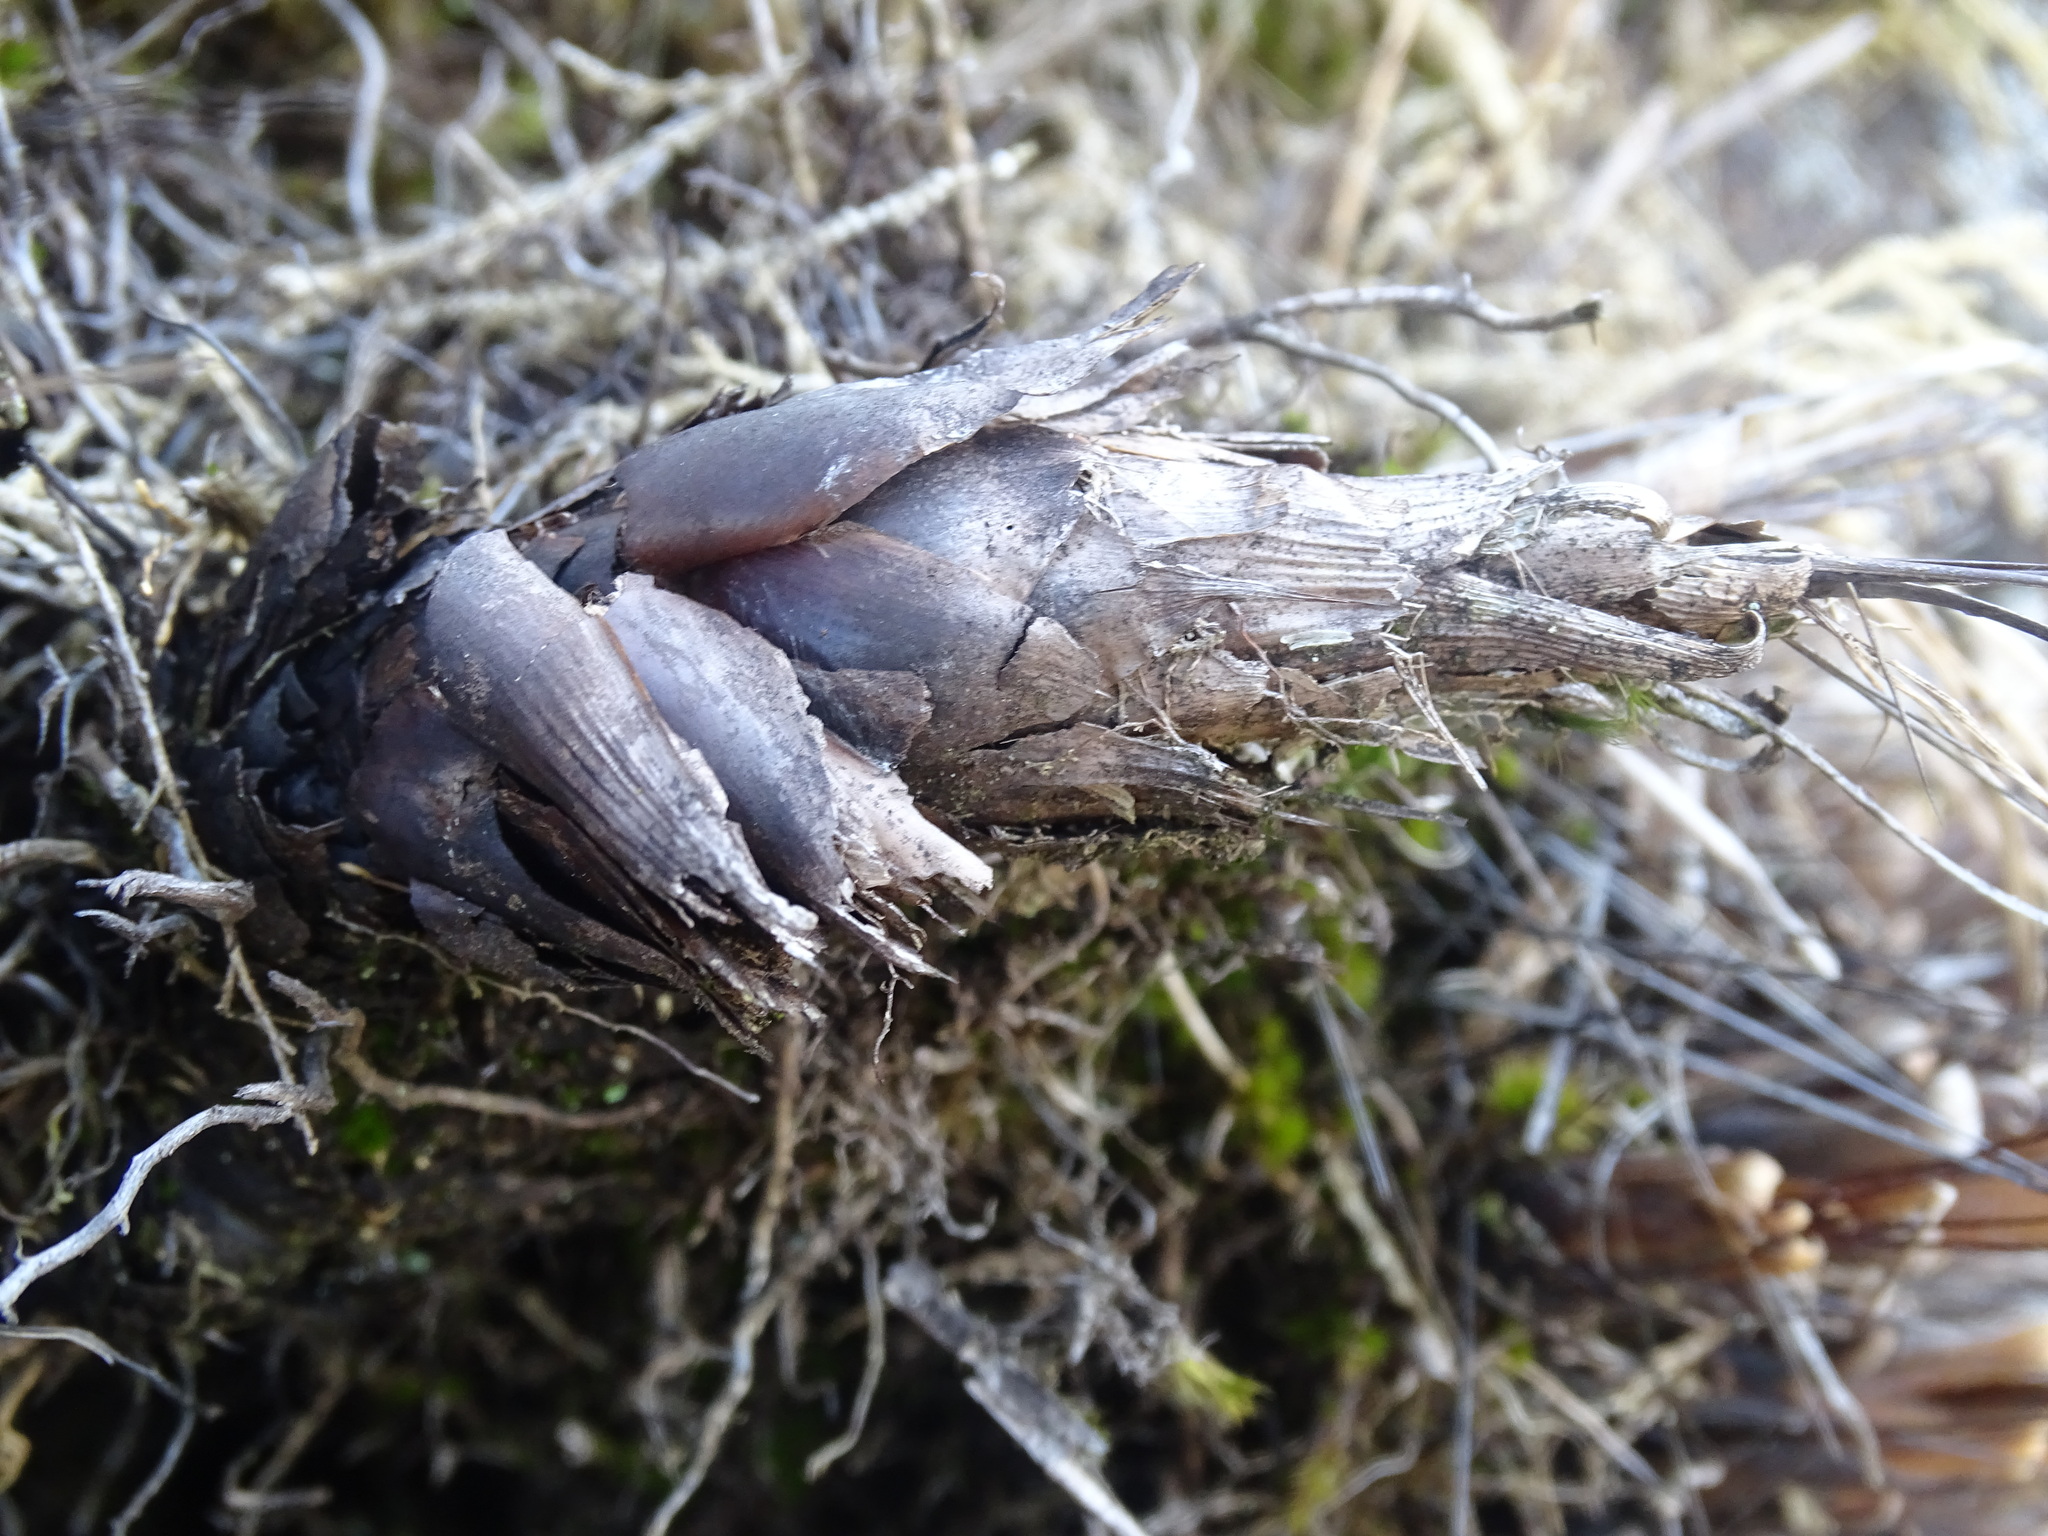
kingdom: Plantae
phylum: Tracheophyta
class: Liliopsida
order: Poales
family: Bromeliaceae
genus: Pitcairnia
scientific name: Pitcairnia heterophylla
